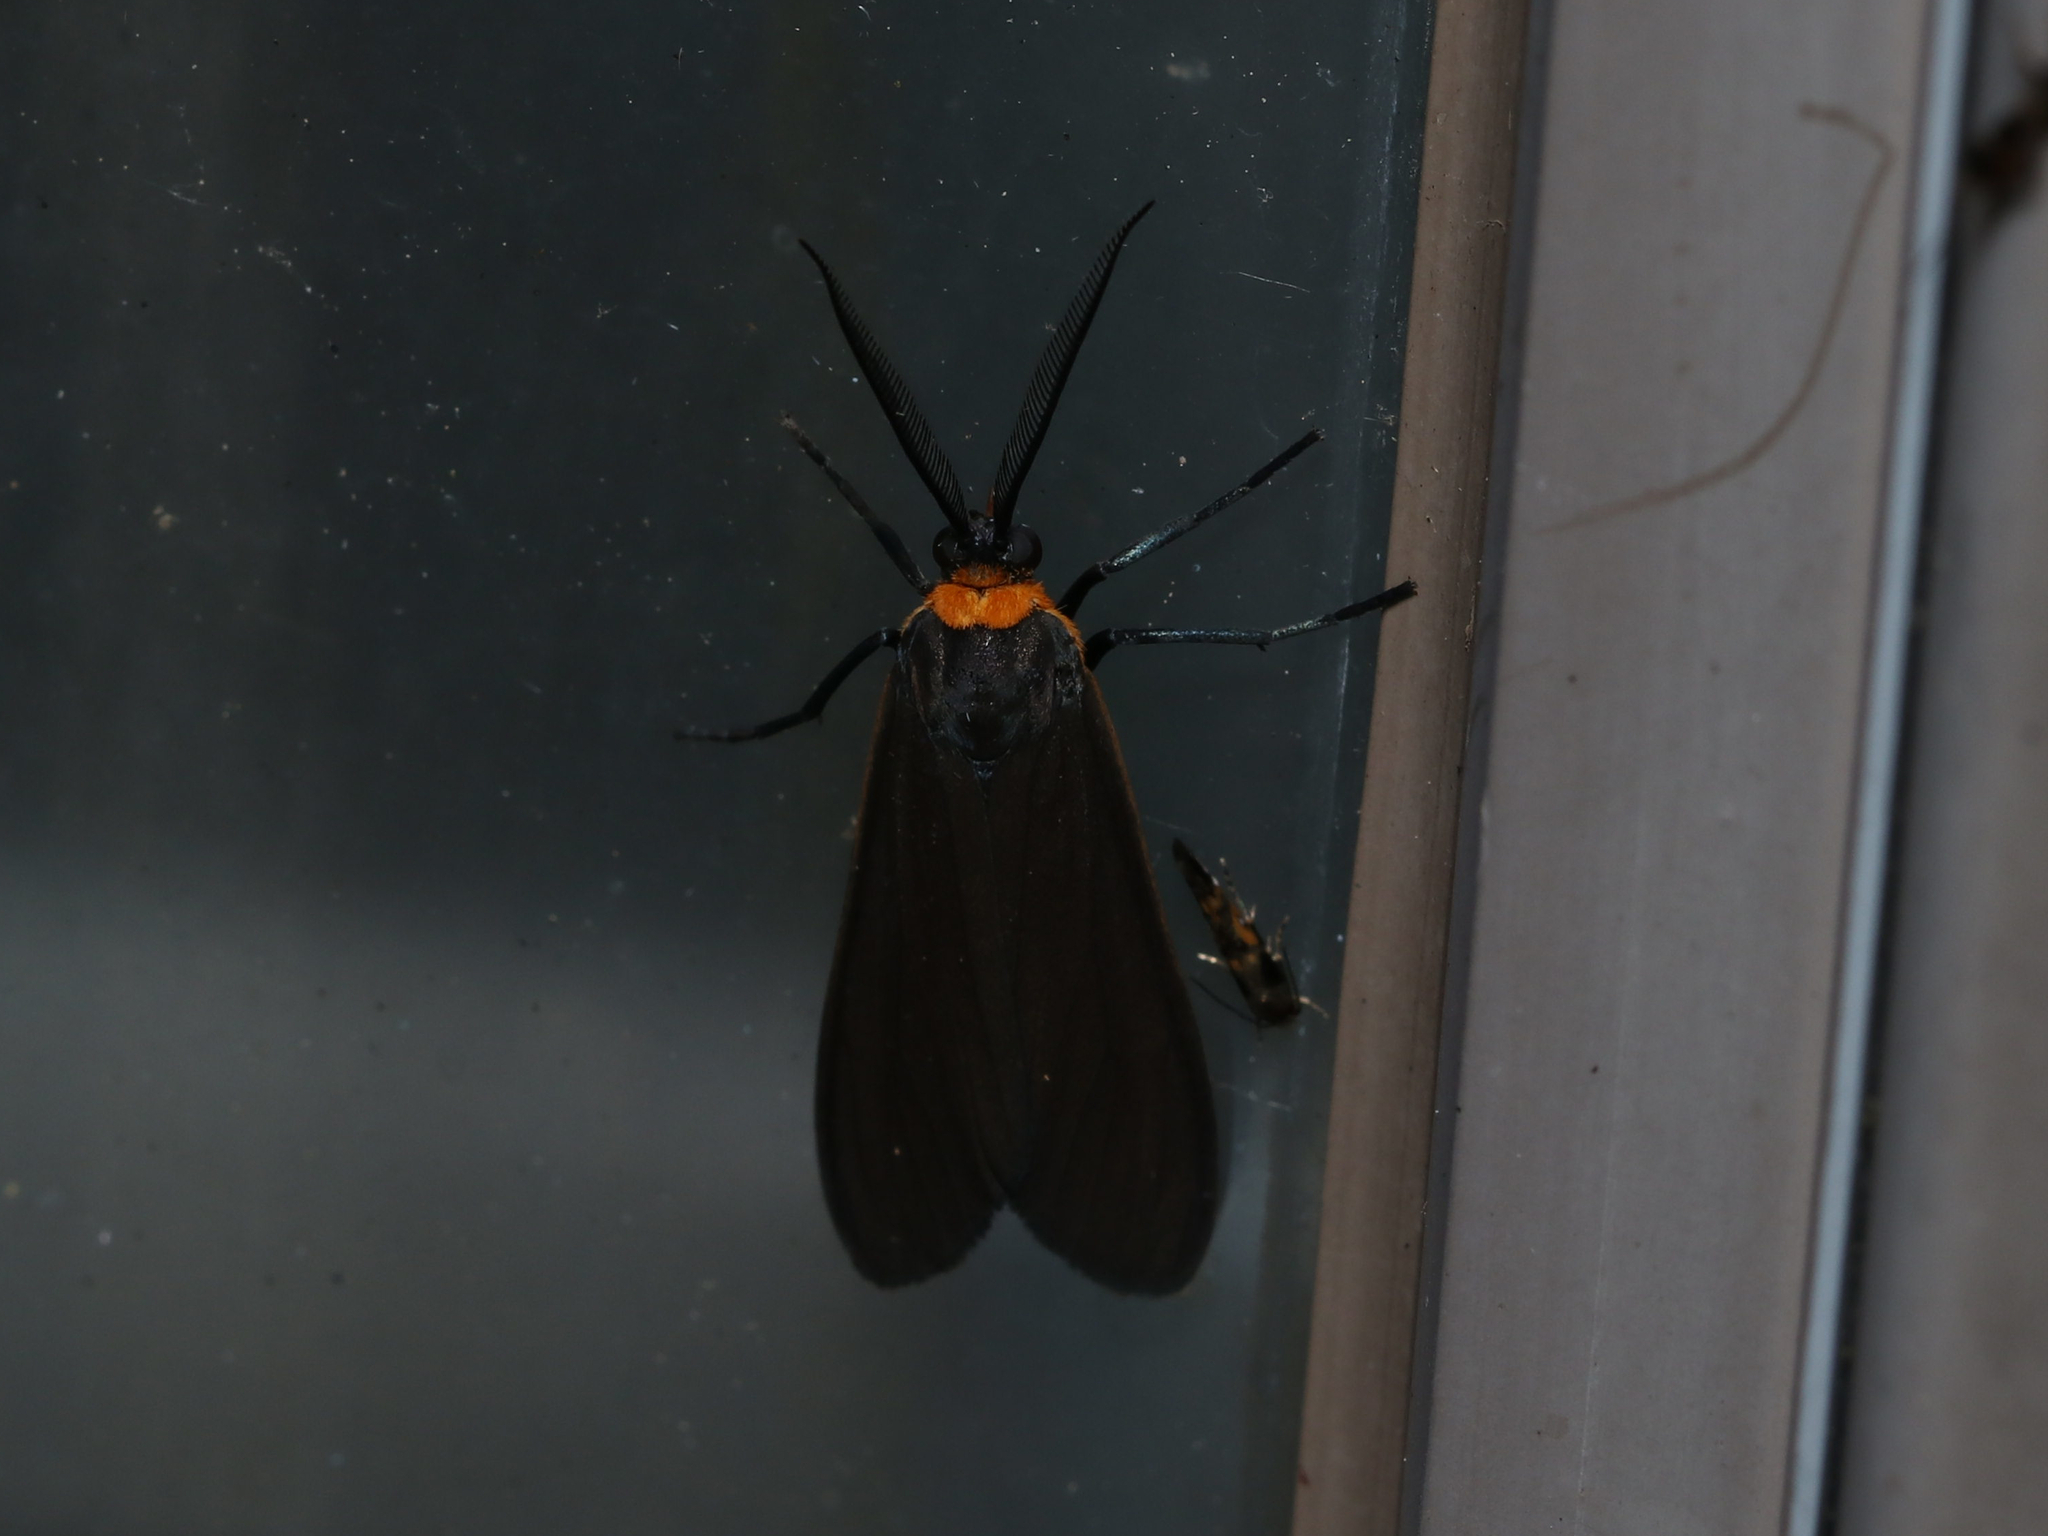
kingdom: Animalia
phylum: Arthropoda
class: Insecta
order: Lepidoptera
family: Erebidae
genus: Cisseps
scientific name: Cisseps fulvicollis
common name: Yellow-collared scape moth
